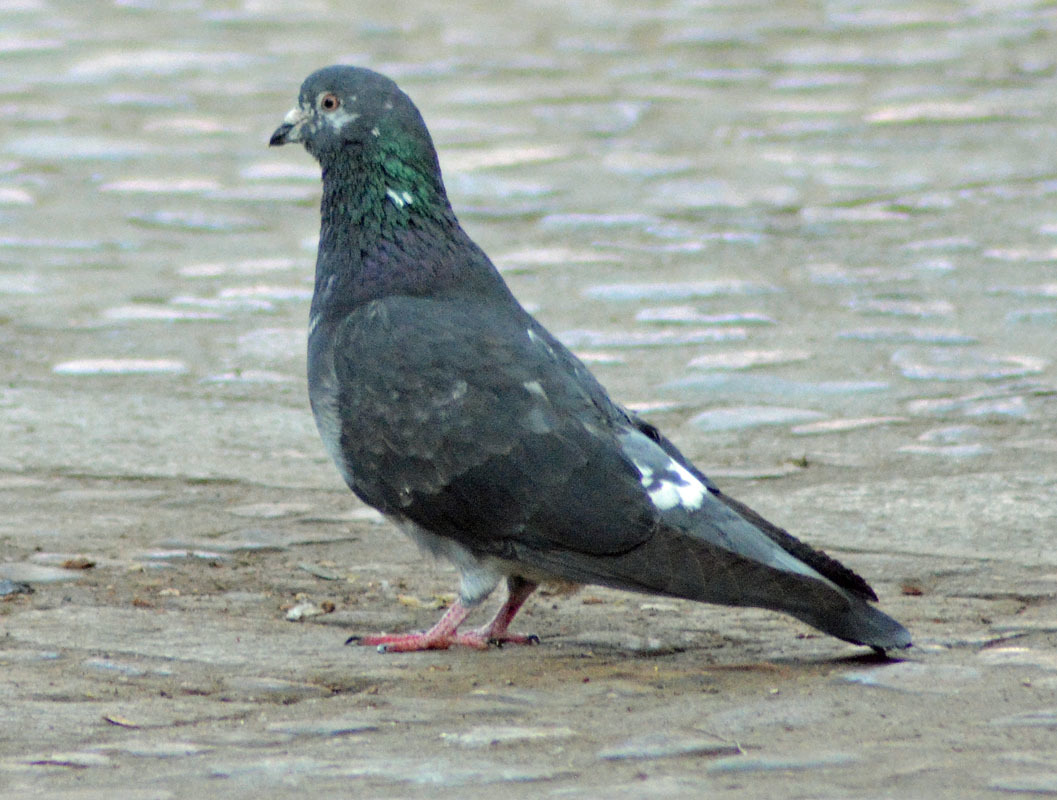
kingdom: Animalia
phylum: Chordata
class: Aves
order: Columbiformes
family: Columbidae
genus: Columba
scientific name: Columba livia
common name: Rock pigeon
